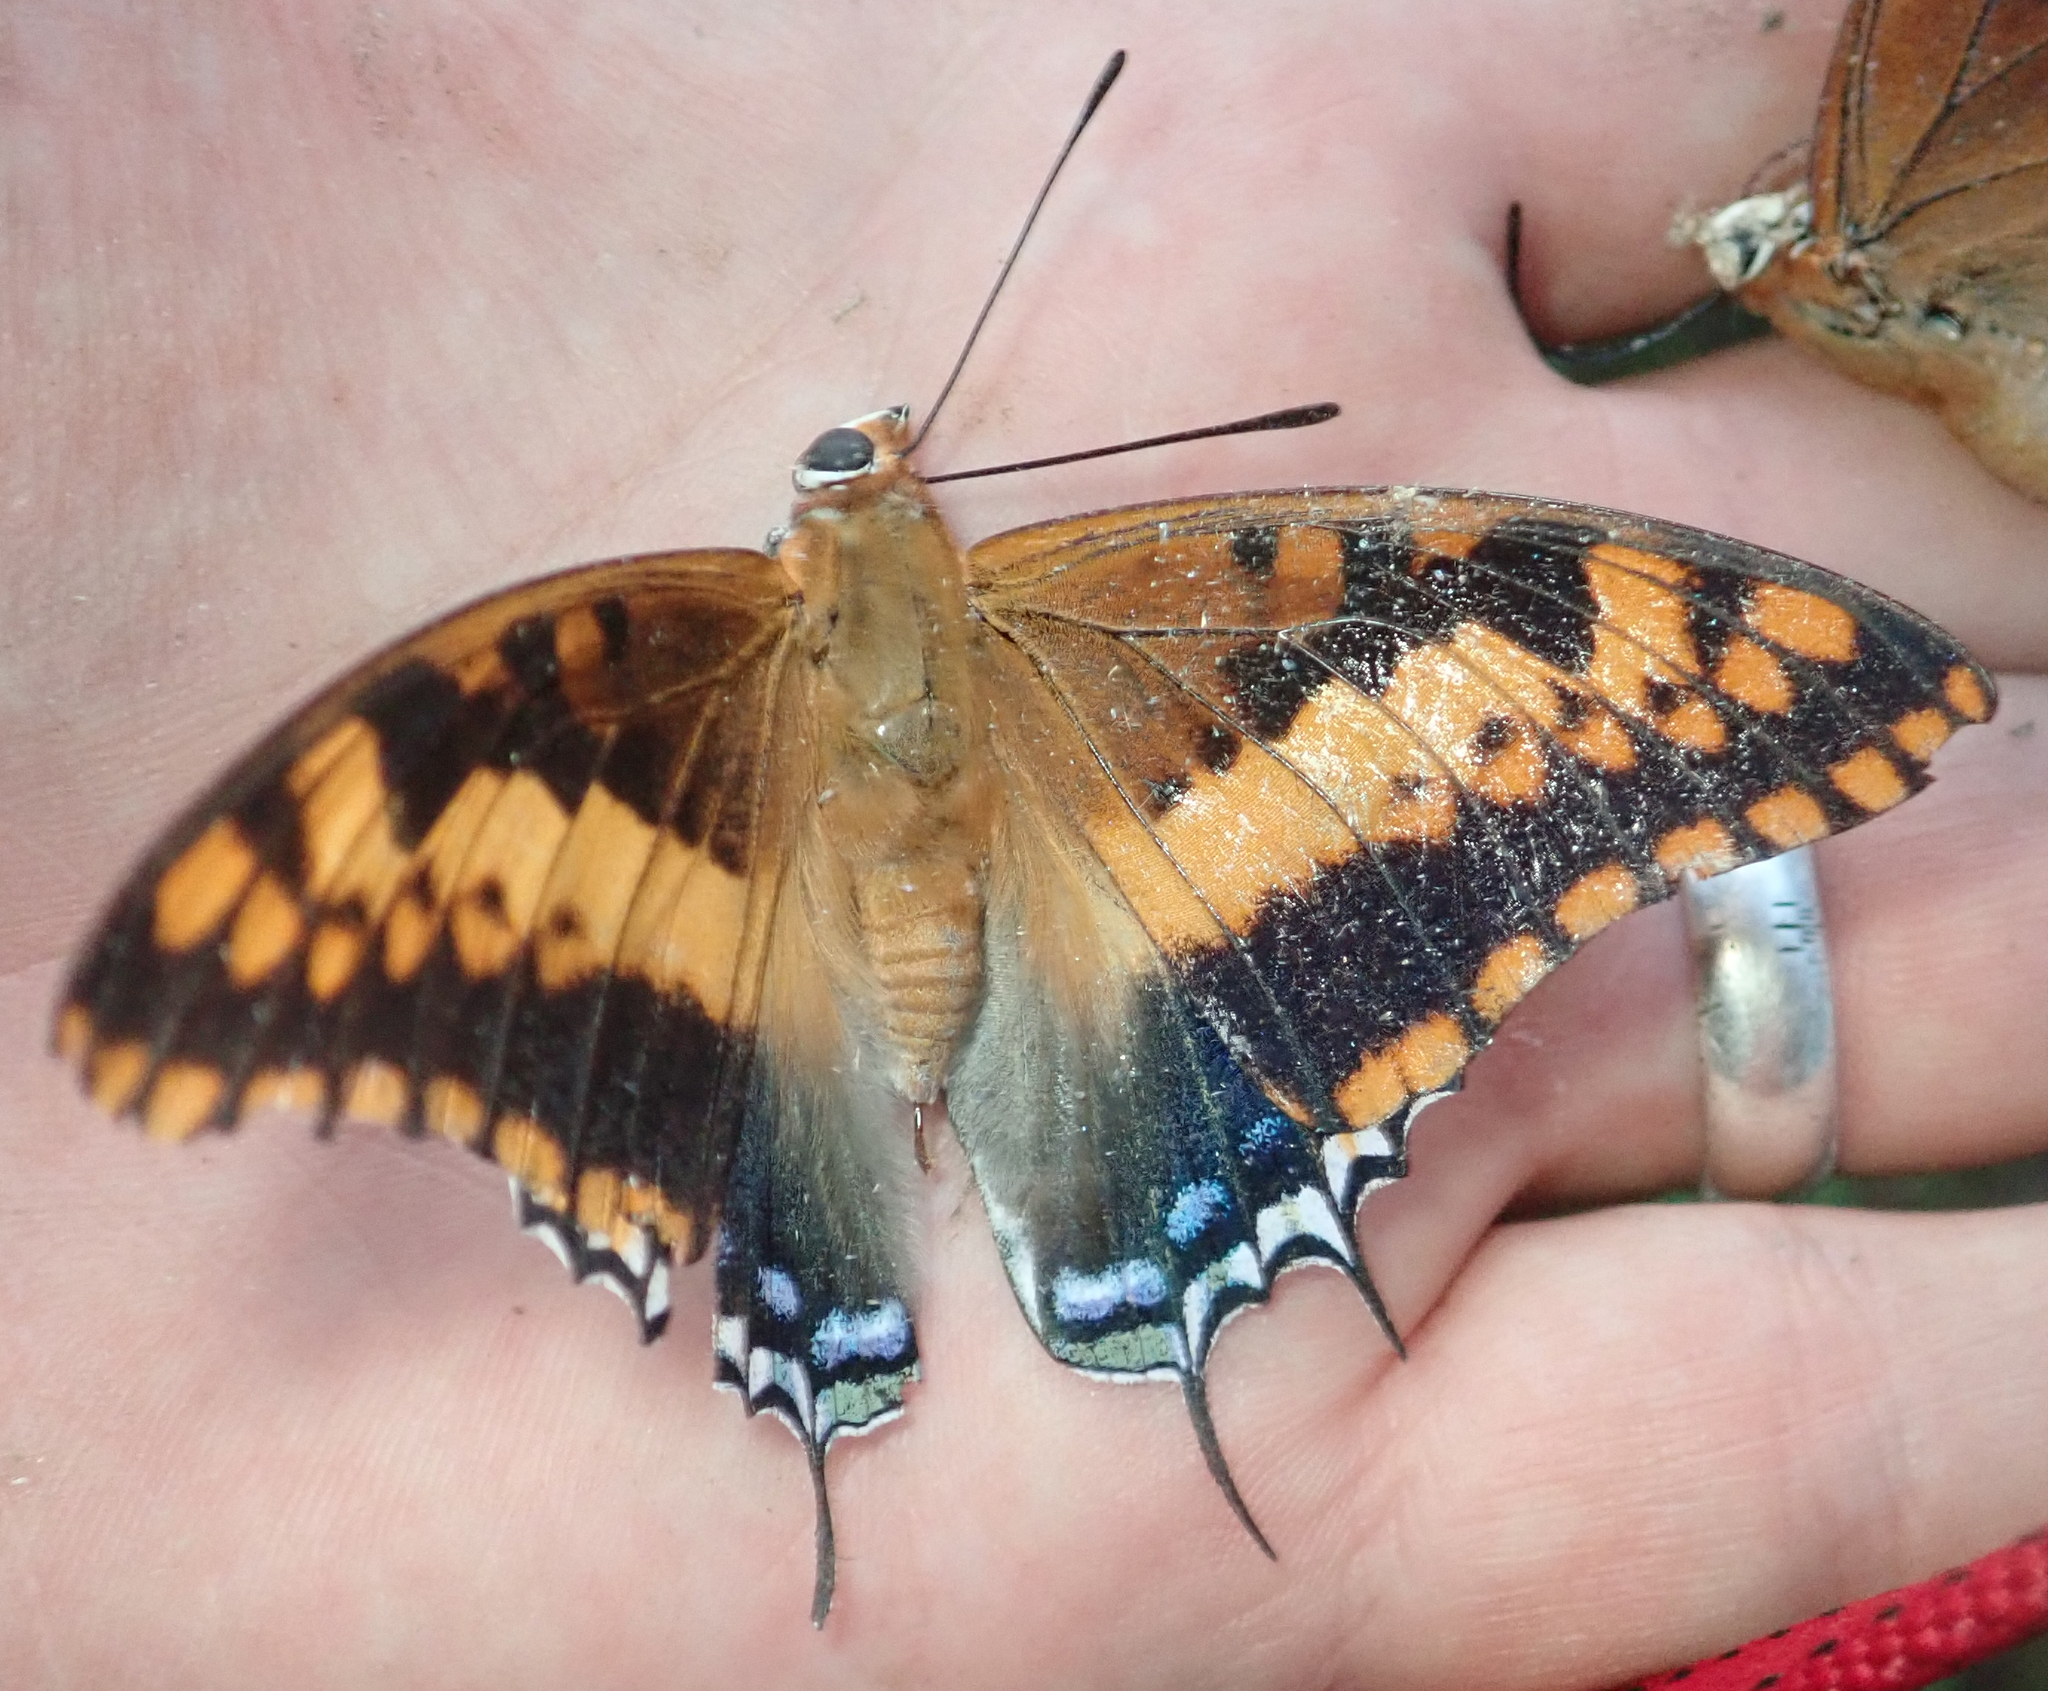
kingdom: Animalia
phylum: Arthropoda
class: Insecta
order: Lepidoptera
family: Nymphalidae
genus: Charaxes
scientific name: Charaxes jasius
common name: Two tailed pasha
